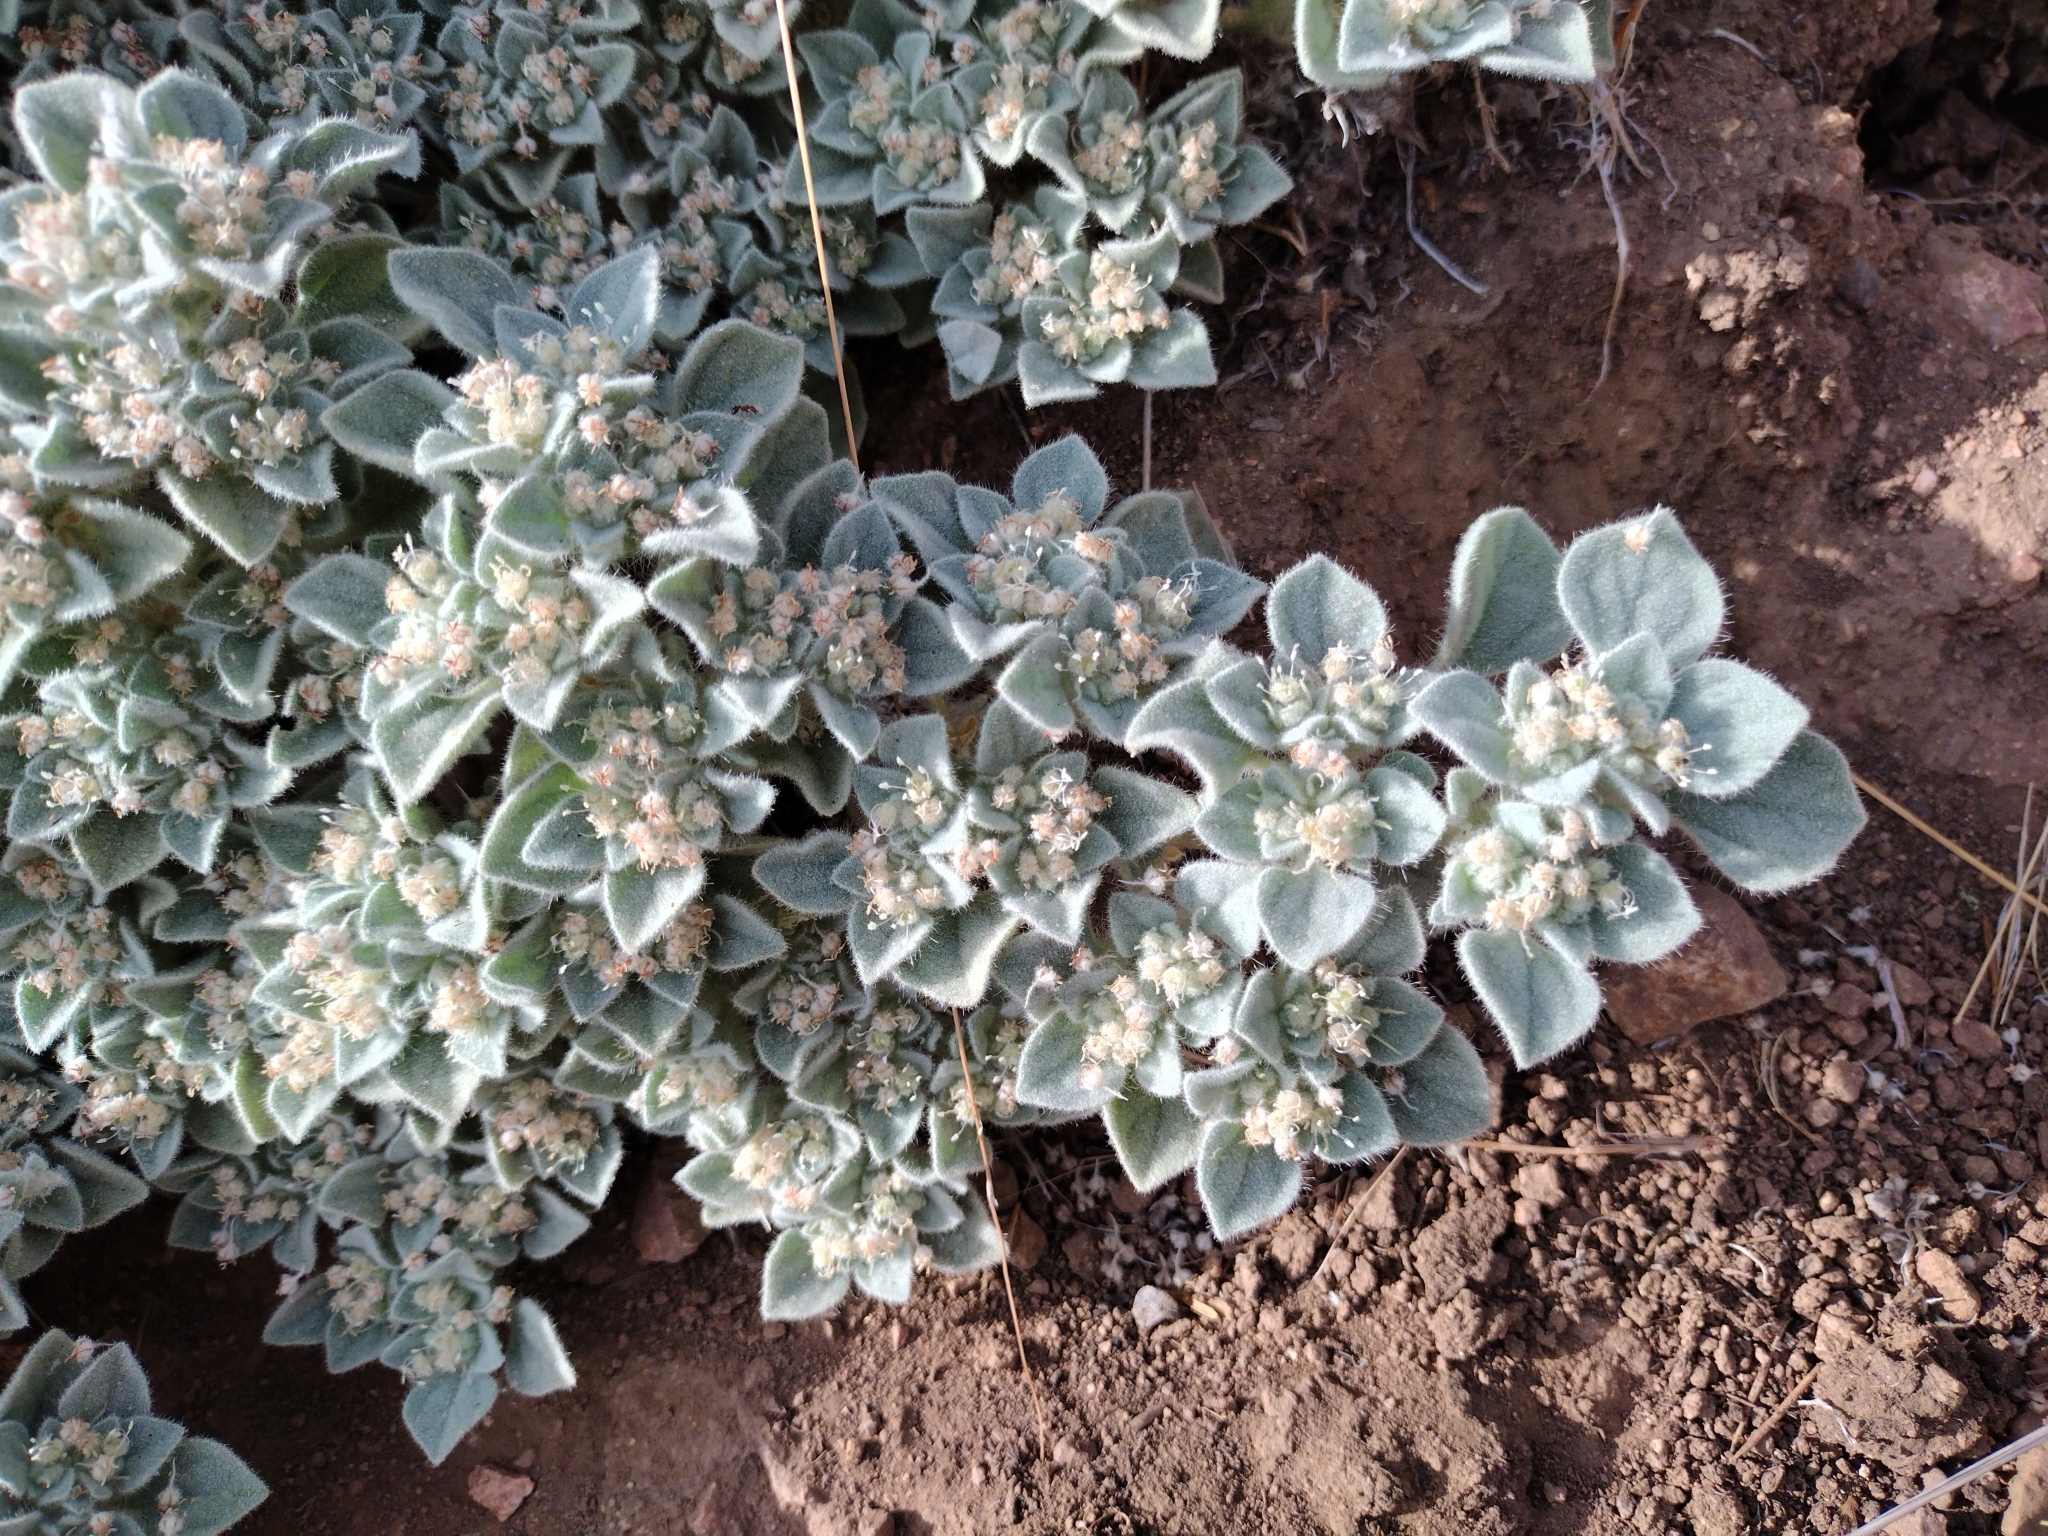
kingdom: Plantae
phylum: Tracheophyta
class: Magnoliopsida
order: Malpighiales
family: Euphorbiaceae
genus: Croton
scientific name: Croton setiger
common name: Dove weed
